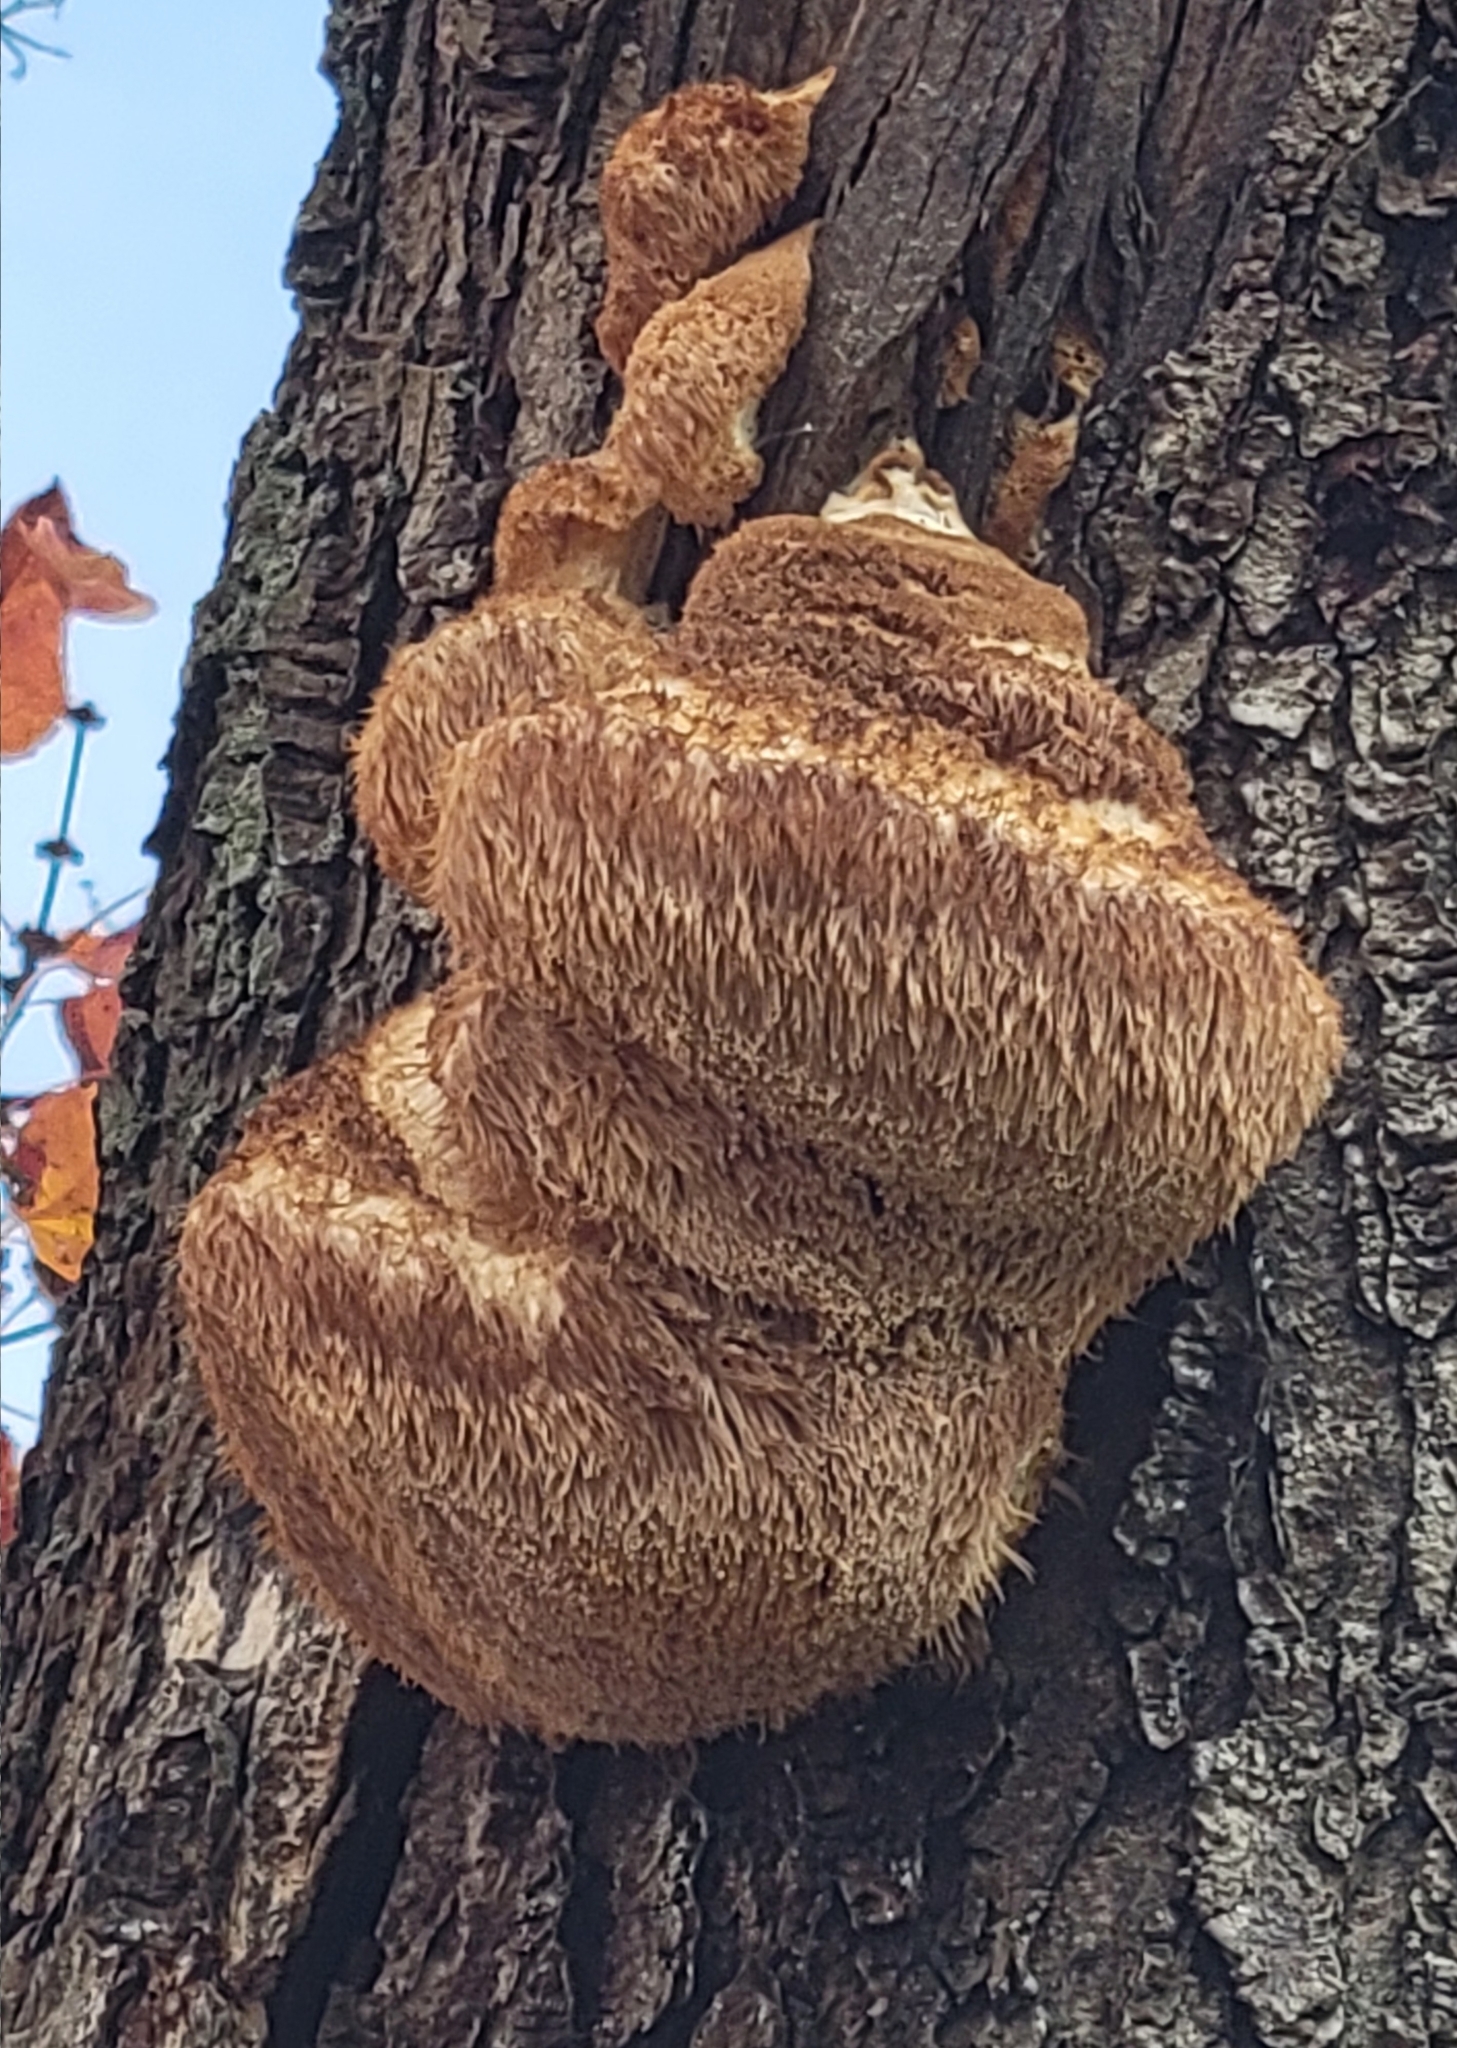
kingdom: Fungi
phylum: Basidiomycota
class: Agaricomycetes
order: Russulales
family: Hericiaceae
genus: Hericium
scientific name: Hericium erinaceus
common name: Bearded tooth
